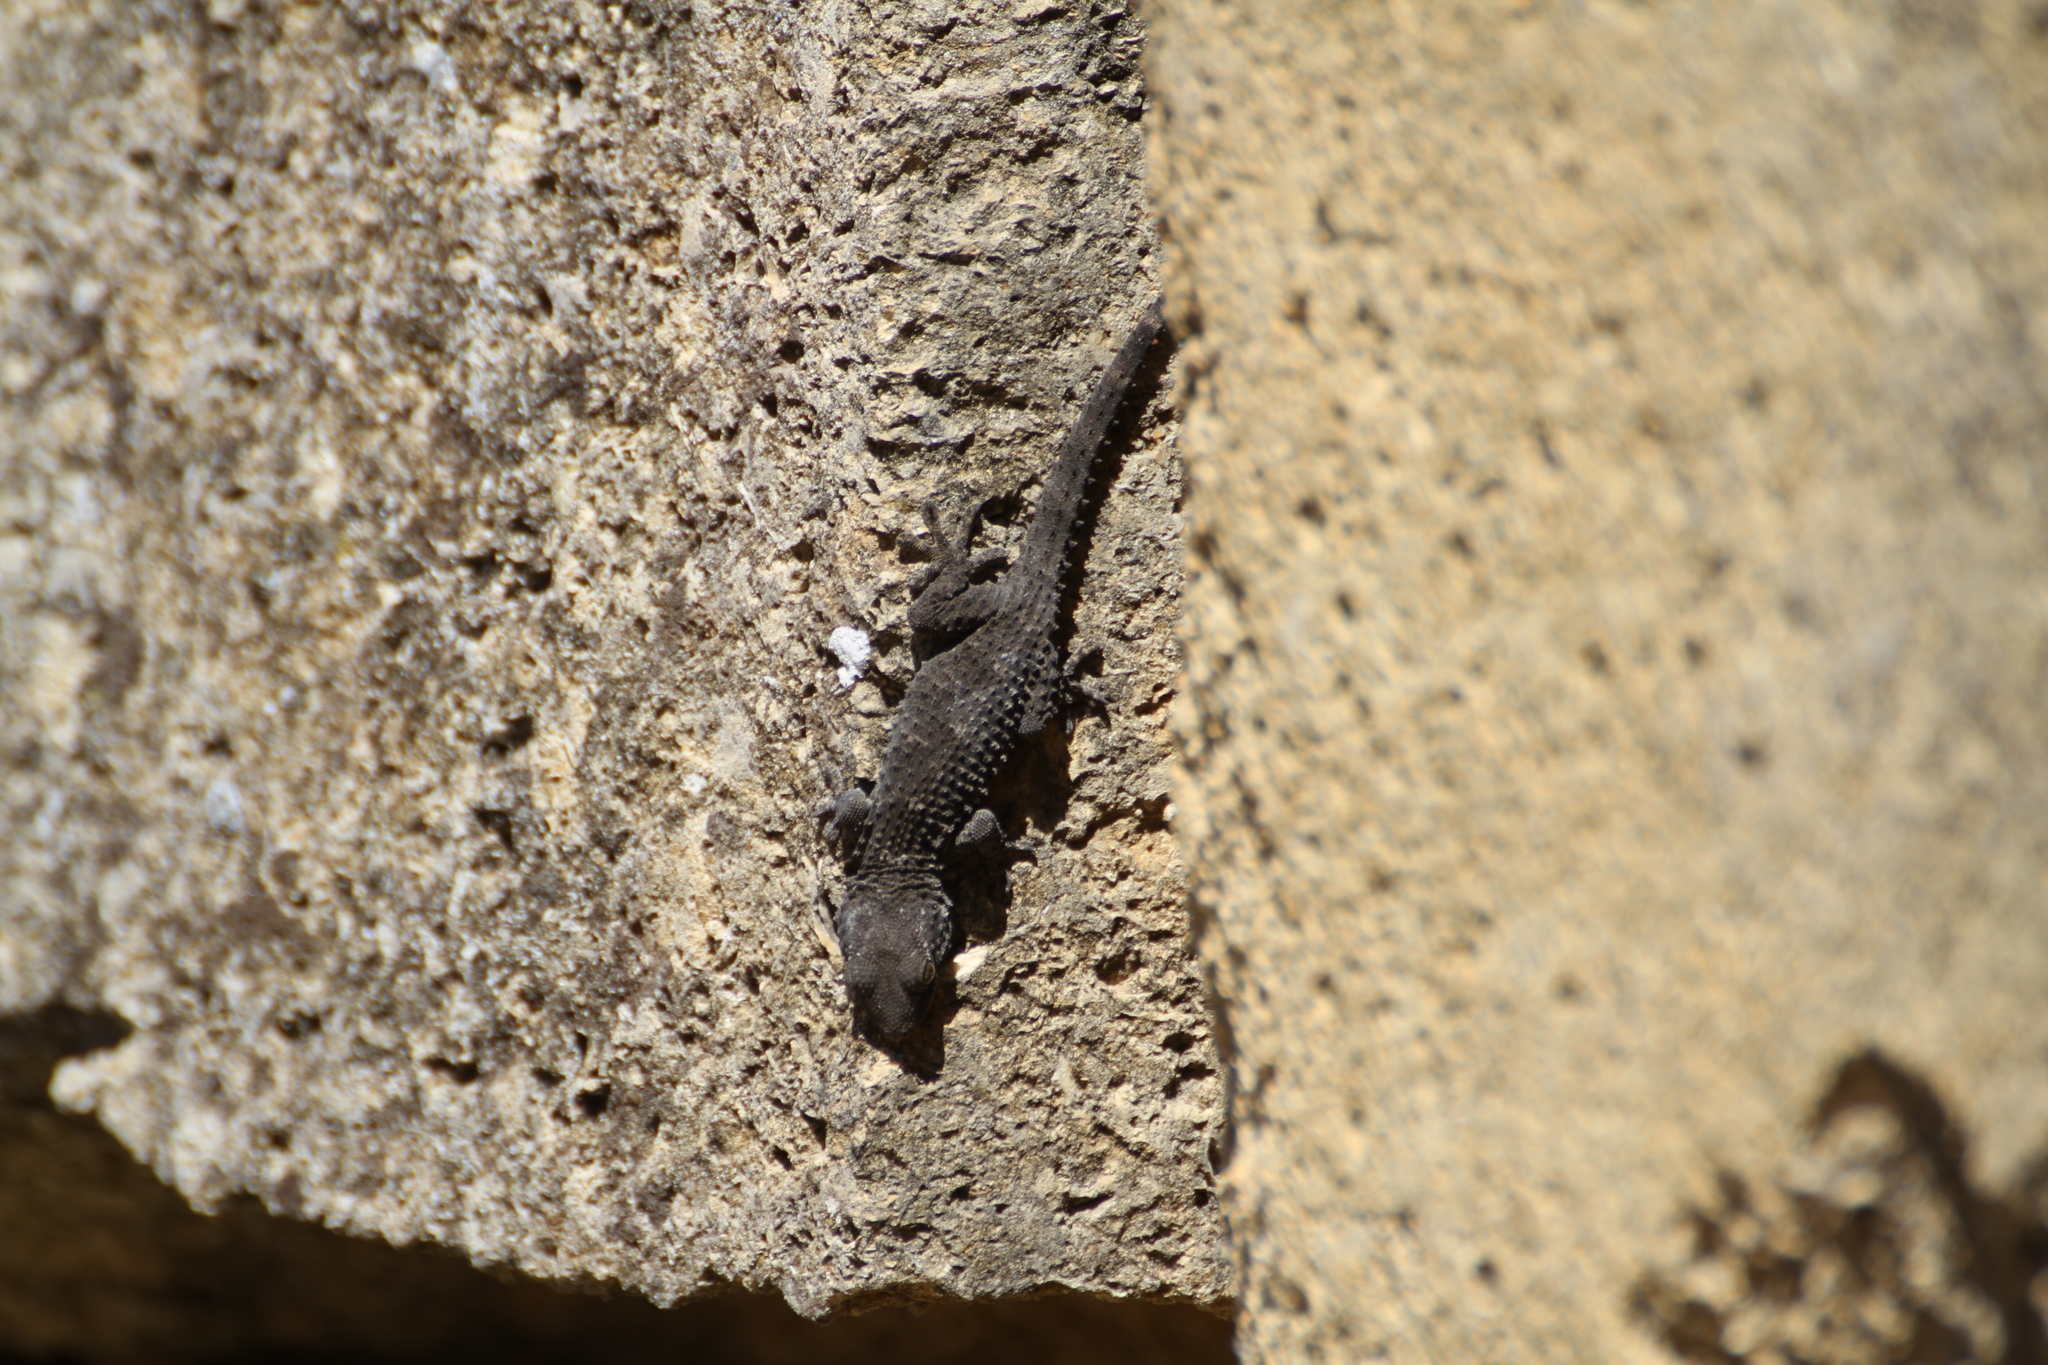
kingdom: Animalia
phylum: Chordata
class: Squamata
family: Phyllodactylidae
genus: Tarentola
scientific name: Tarentola mauritanica
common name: Moorish gecko
